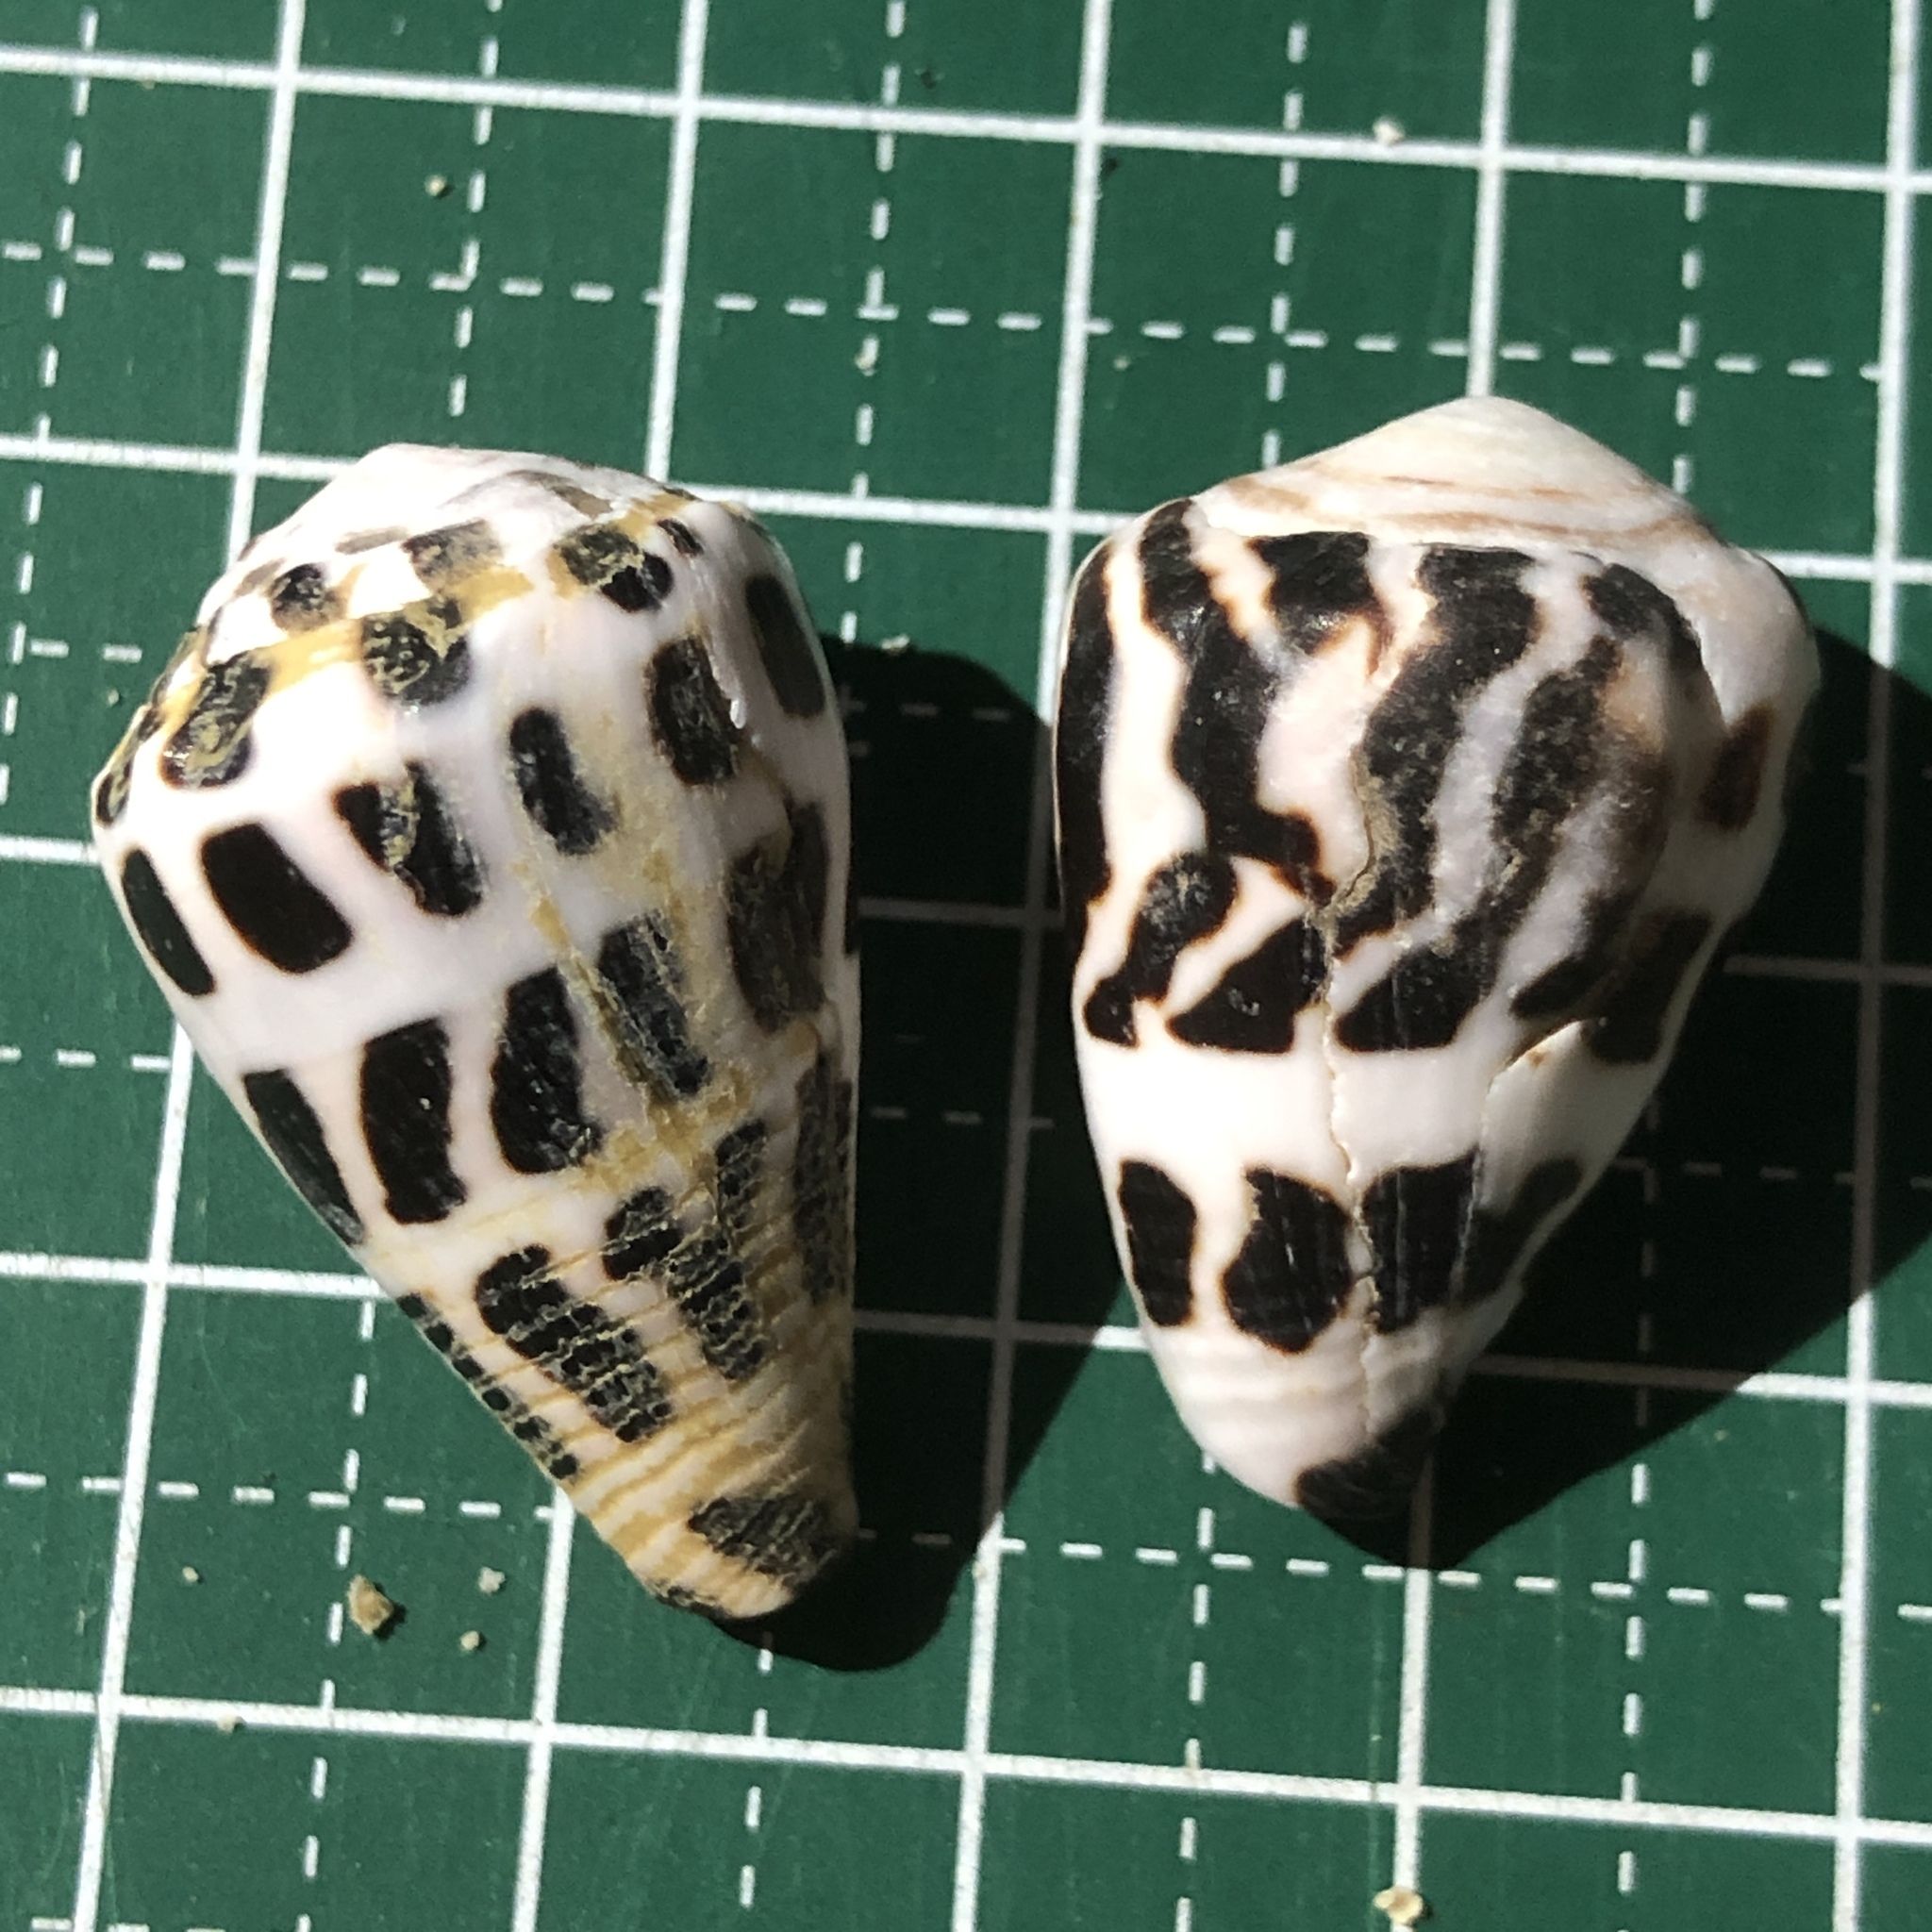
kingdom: Animalia
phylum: Mollusca
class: Gastropoda
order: Neogastropoda
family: Conidae
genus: Conus
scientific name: Conus ebraeus
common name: Hebrew cone
